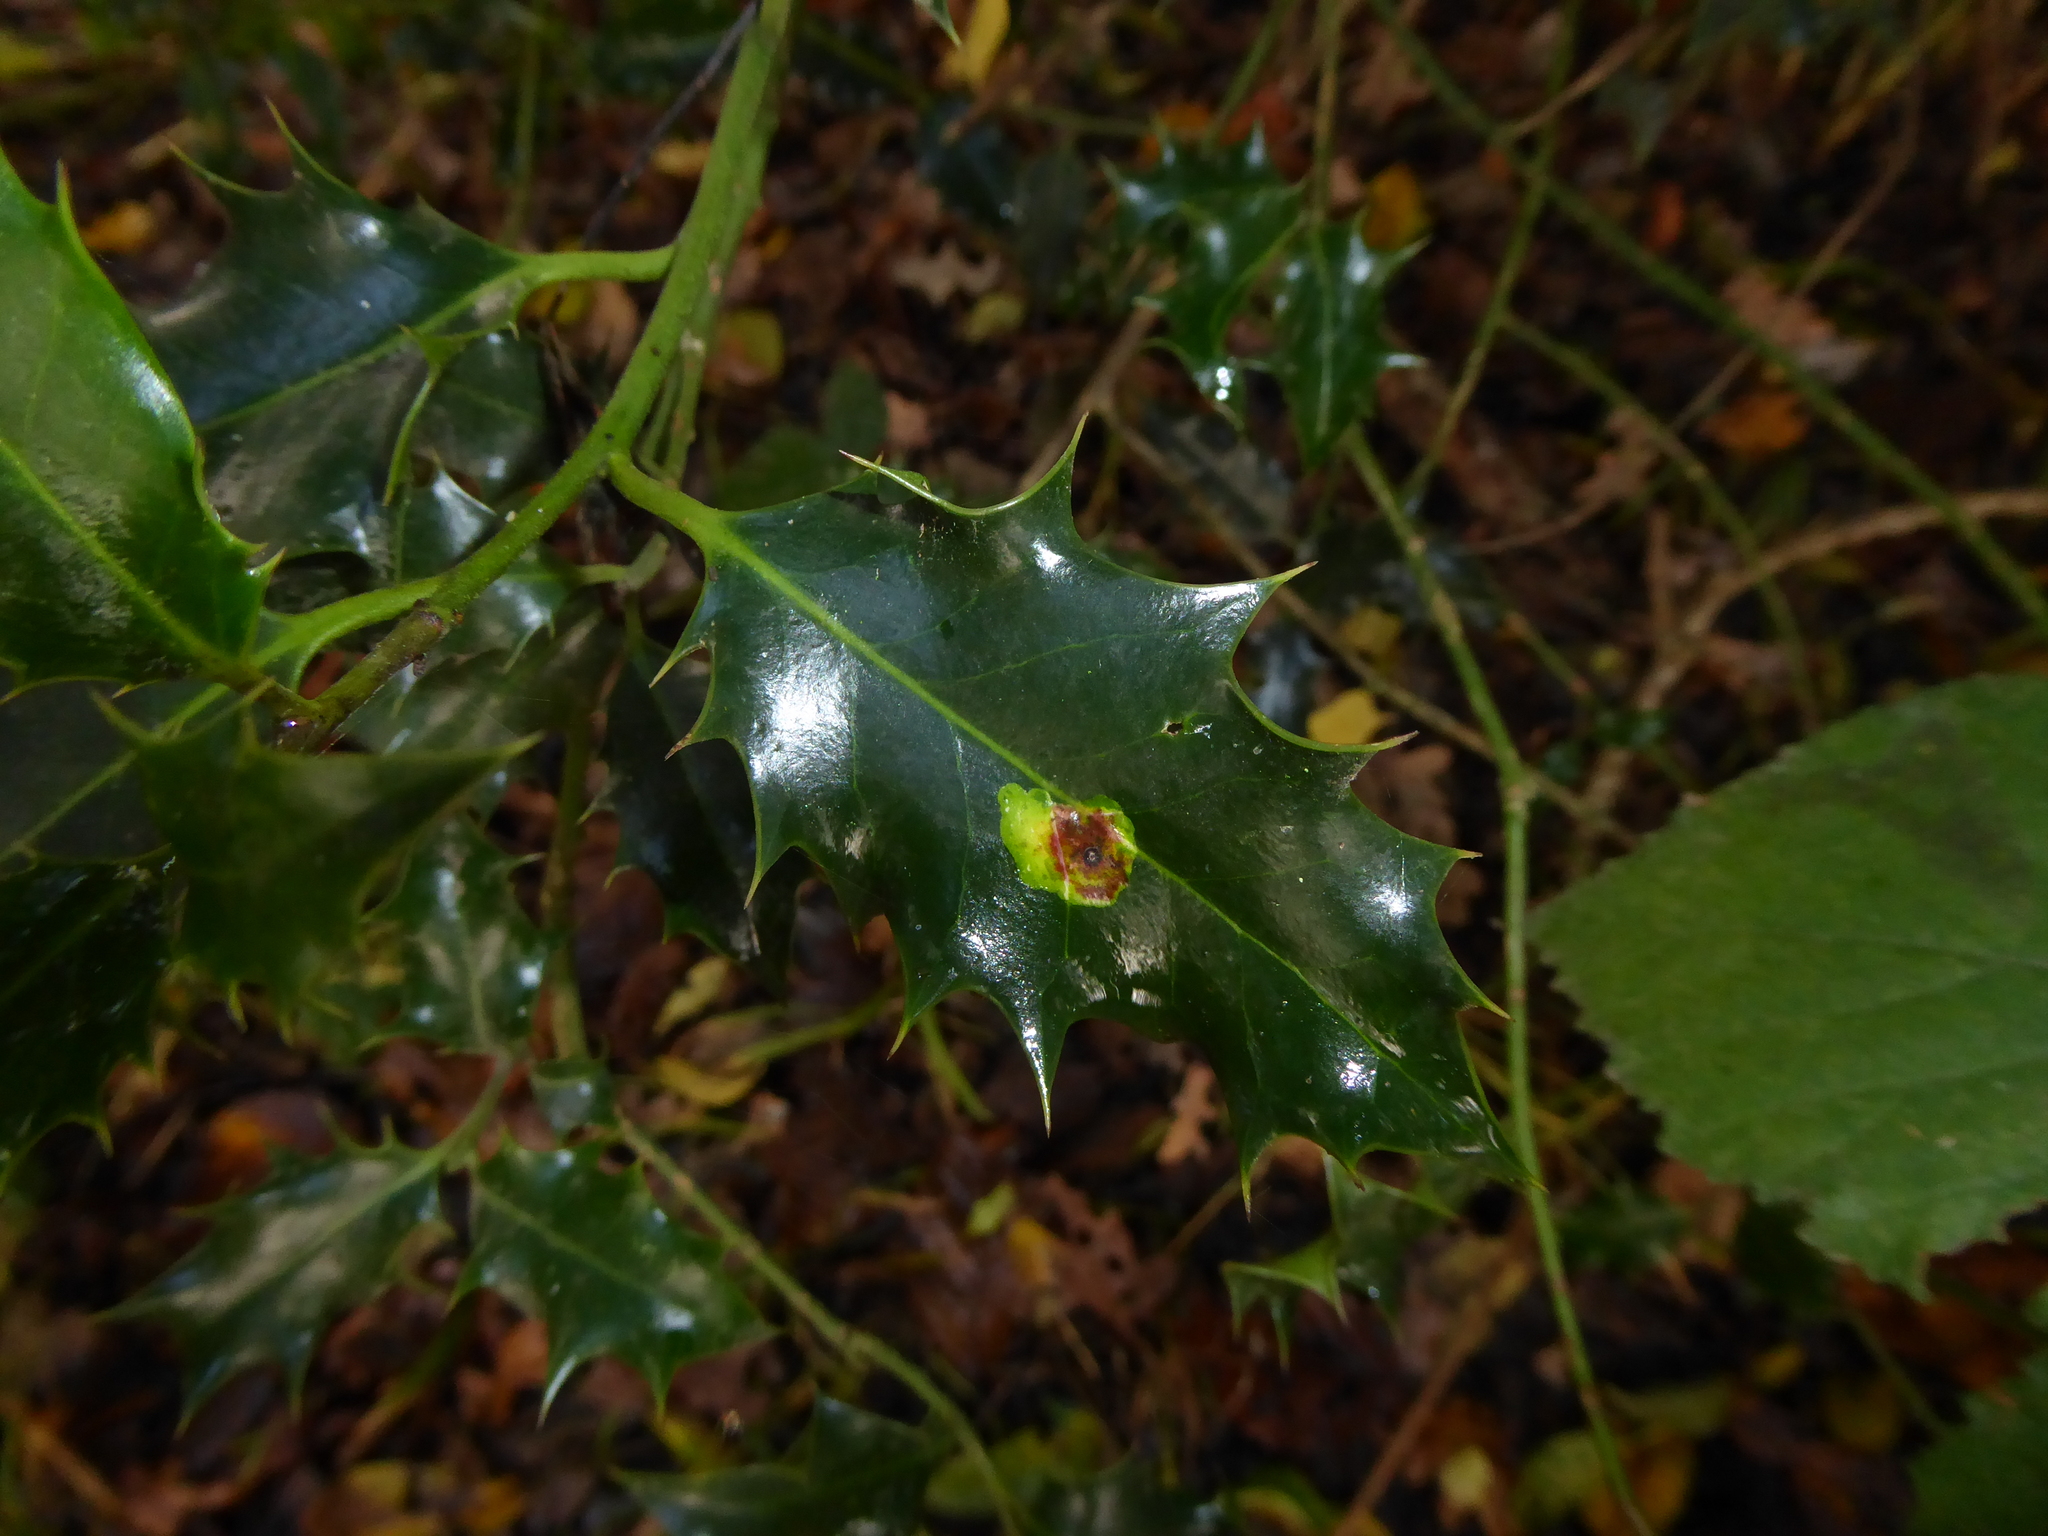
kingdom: Animalia
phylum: Arthropoda
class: Insecta
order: Diptera
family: Agromyzidae
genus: Phytomyza
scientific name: Phytomyza ilicis
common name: Holly leafminer
